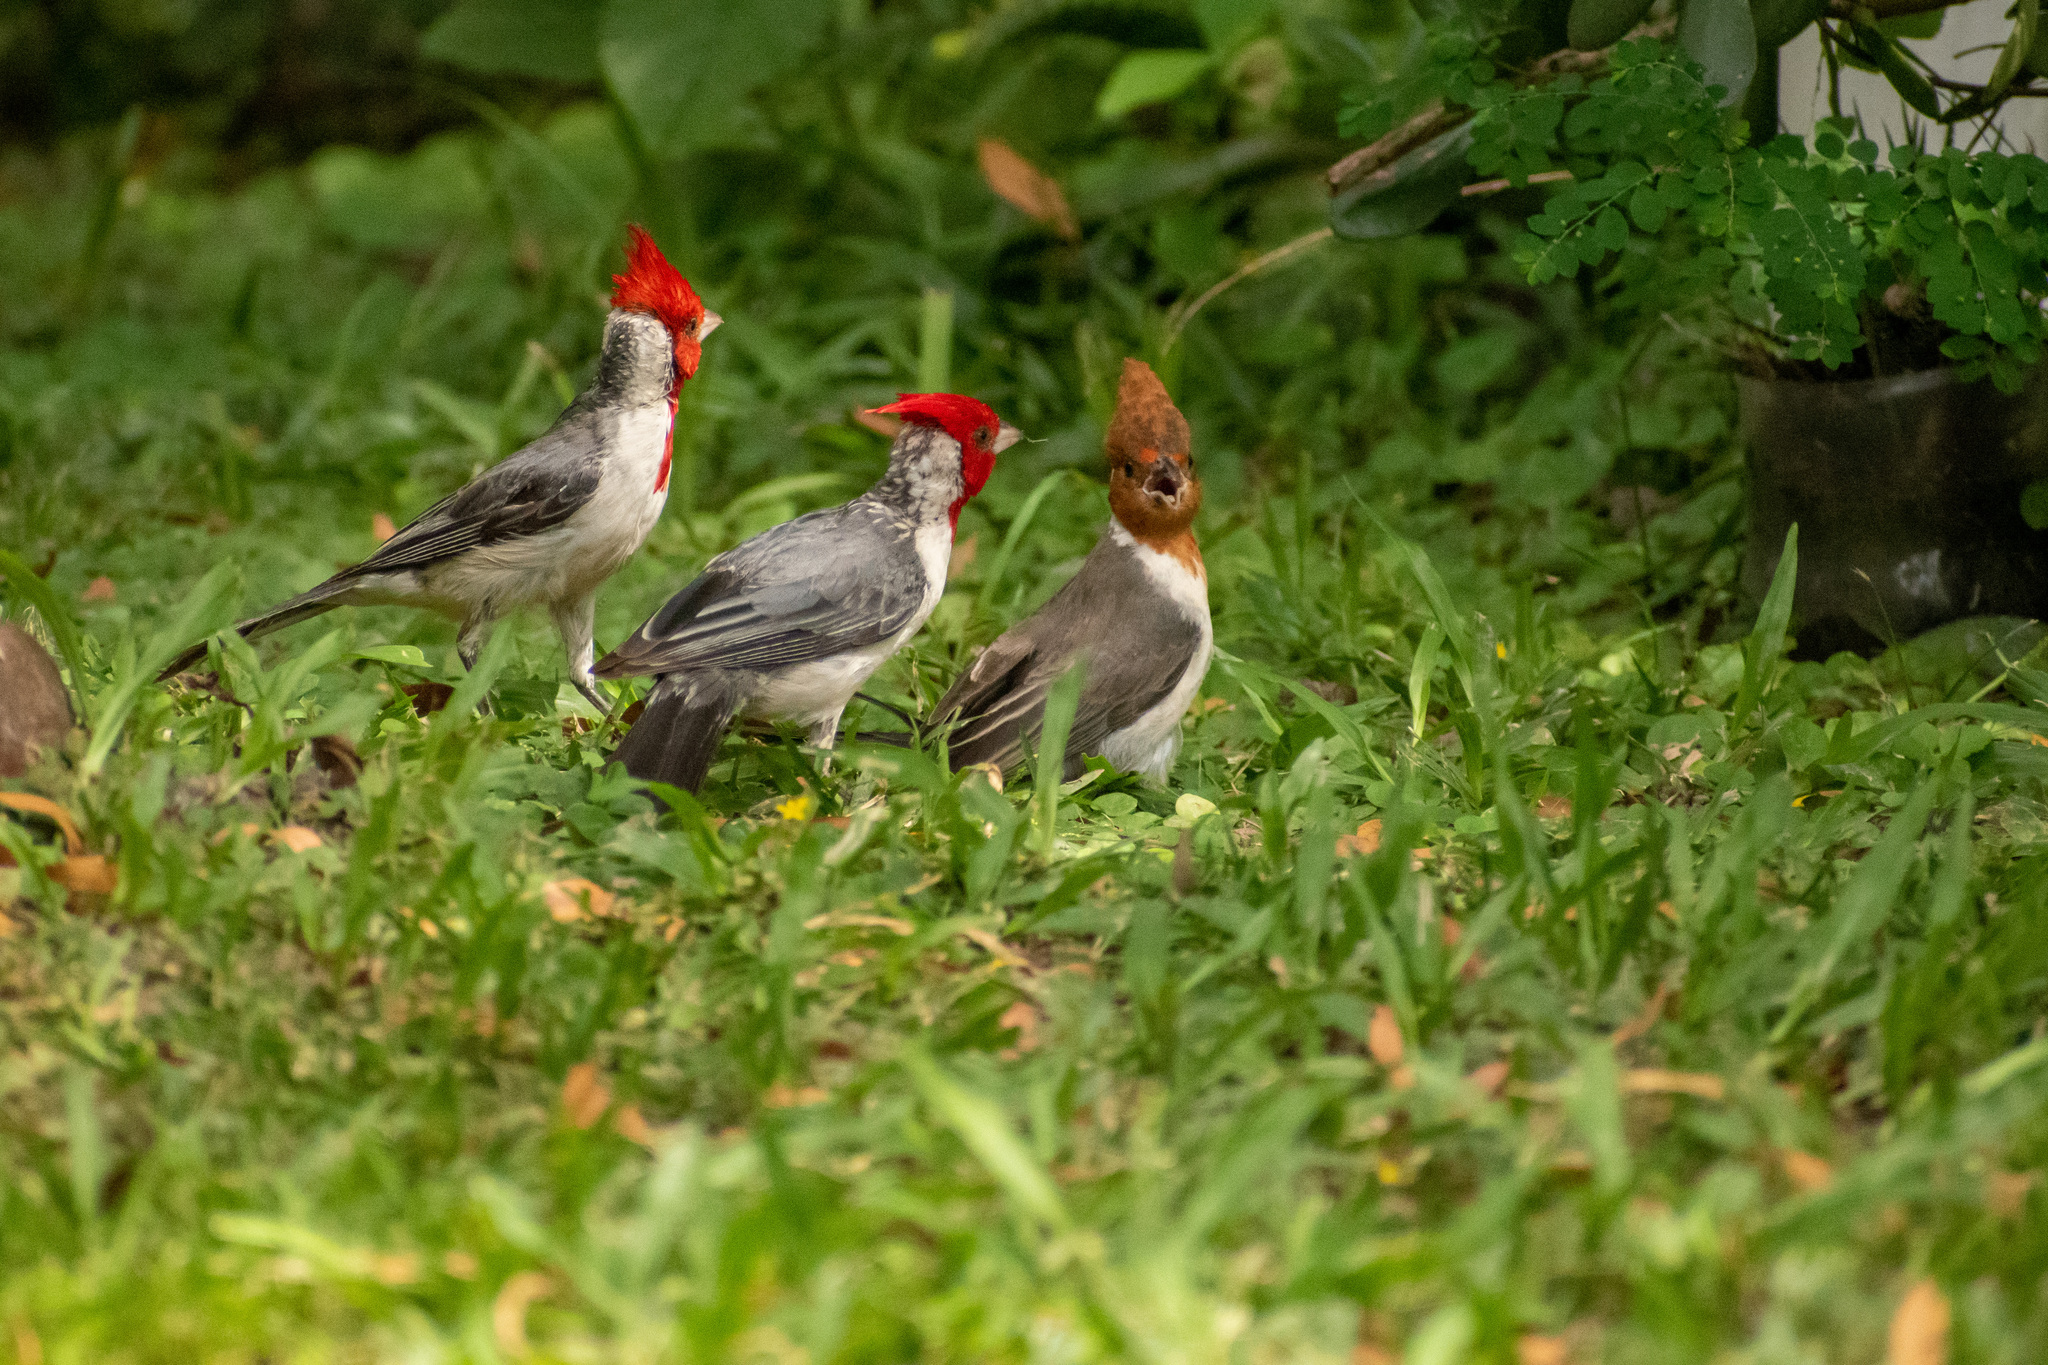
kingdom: Animalia
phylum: Chordata
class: Aves
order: Passeriformes
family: Thraupidae
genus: Paroaria
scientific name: Paroaria coronata
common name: Red-crested cardinal
